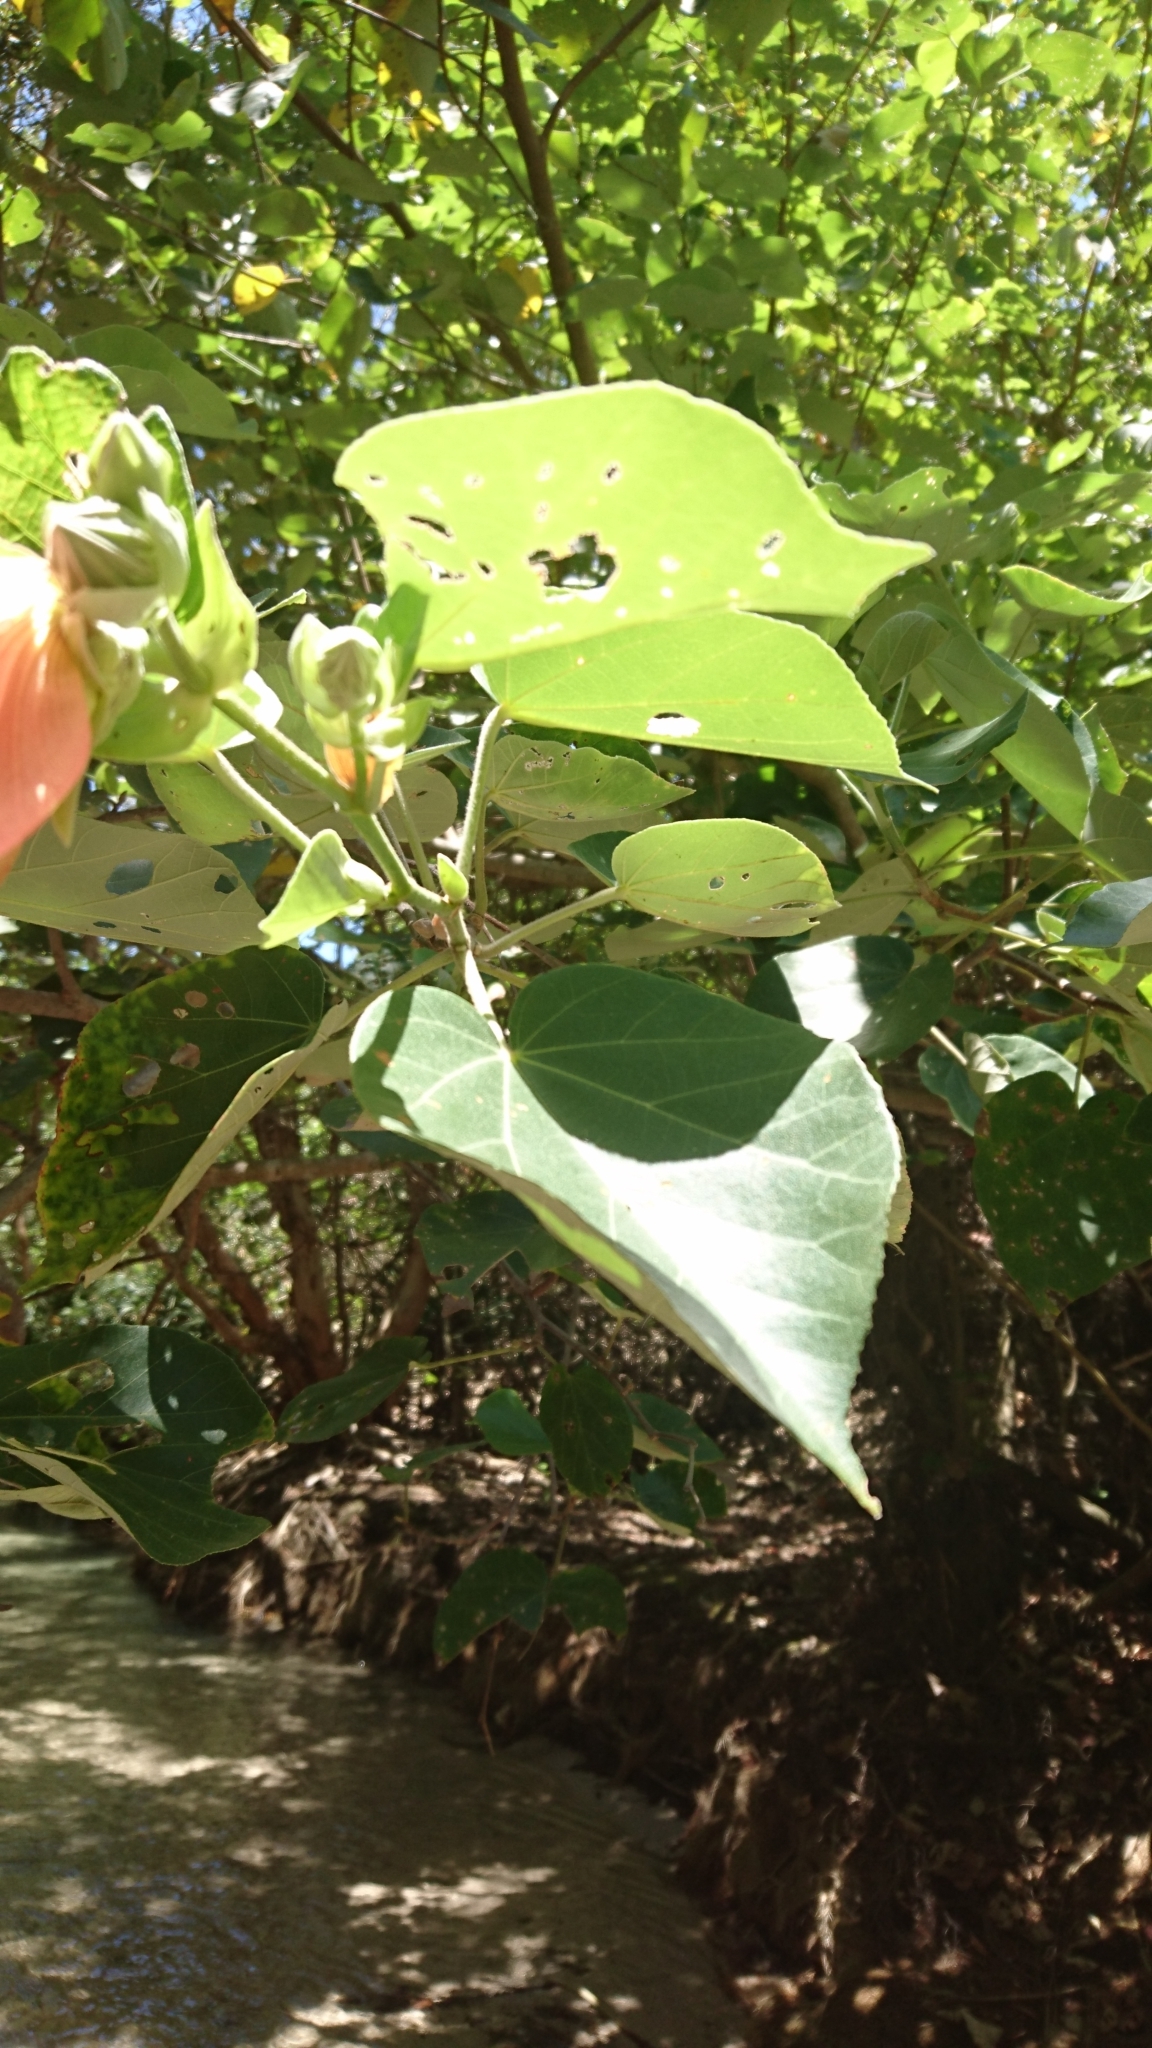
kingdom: Plantae
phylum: Tracheophyta
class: Magnoliopsida
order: Malvales
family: Malvaceae
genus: Talipariti
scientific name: Talipariti tiliaceum
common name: Sea hibiscus
